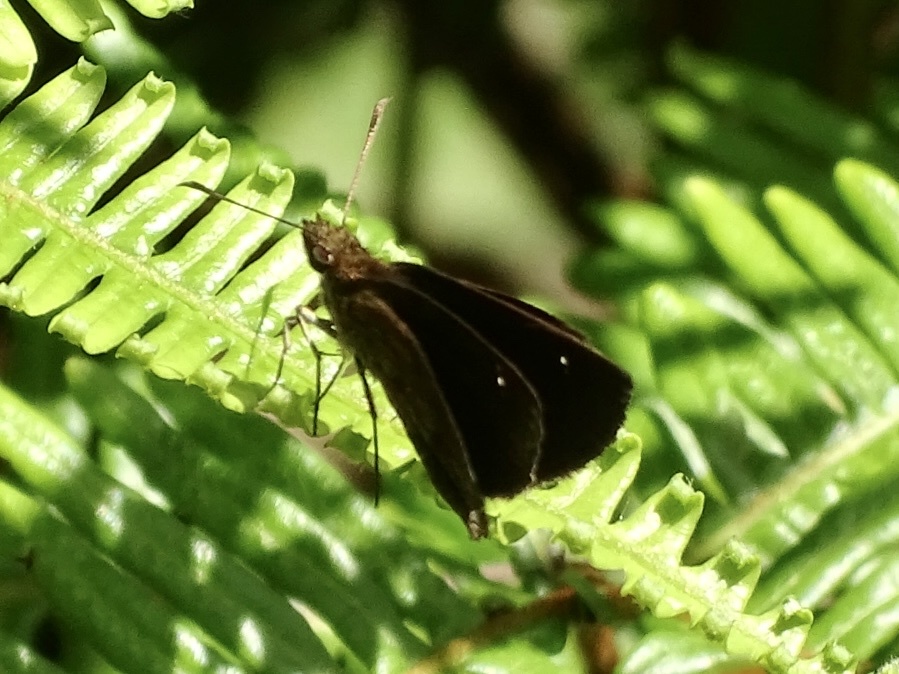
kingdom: Animalia
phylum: Arthropoda
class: Insecta
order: Lepidoptera
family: Hesperiidae
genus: Astictopterus
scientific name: Astictopterus jama
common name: Forest hopper
